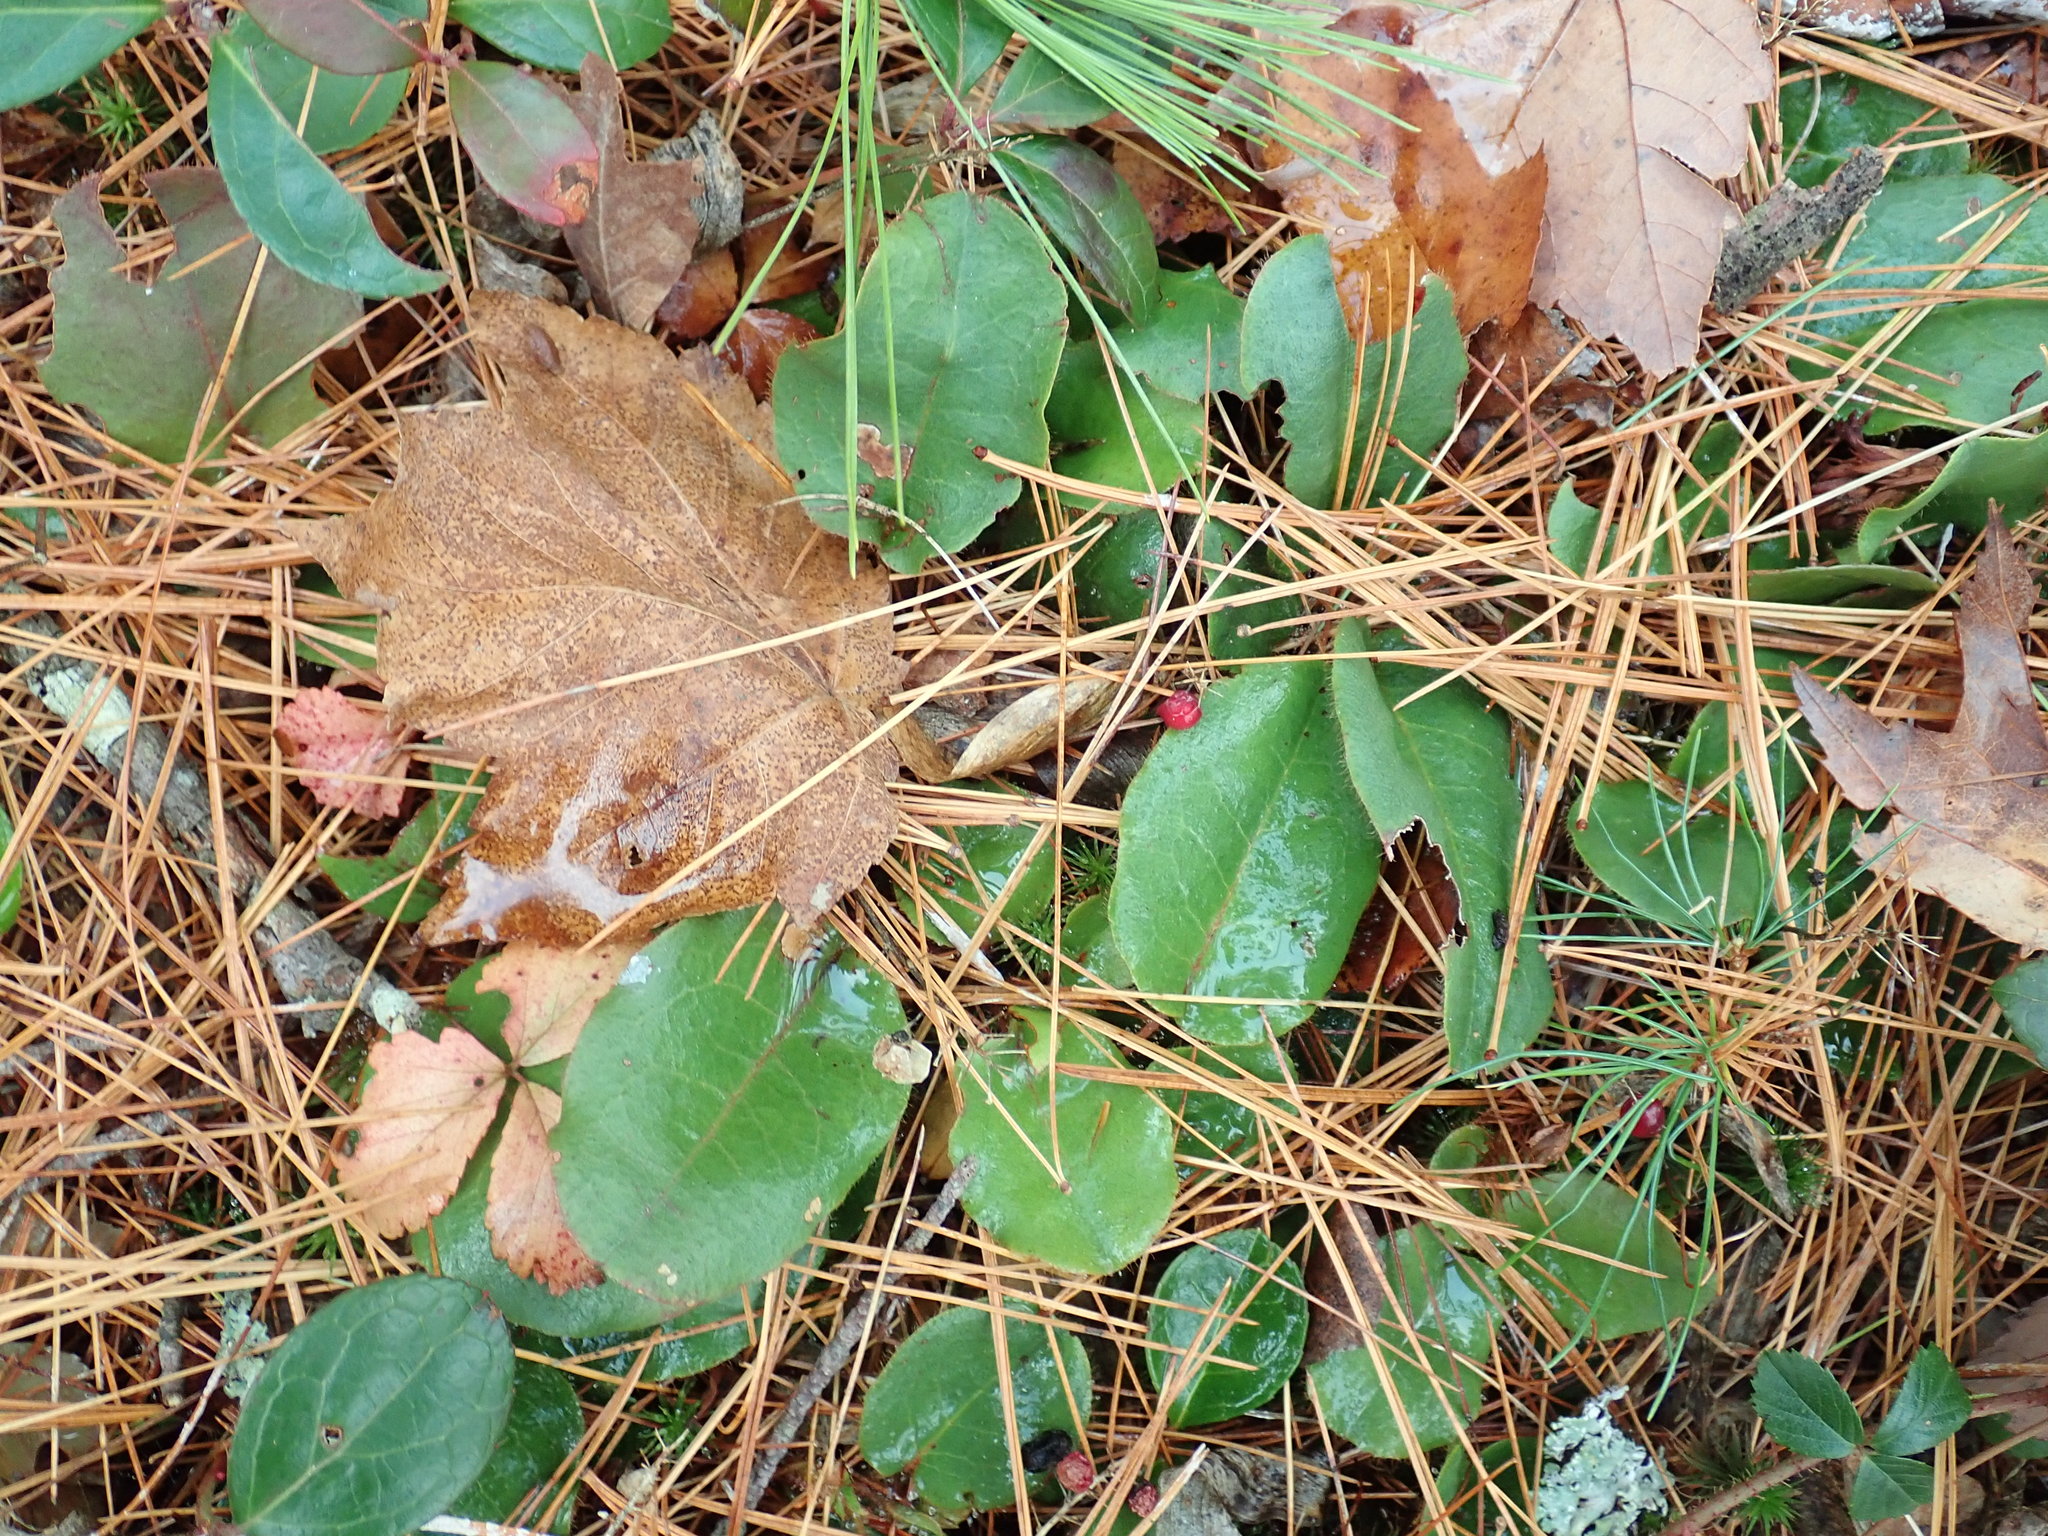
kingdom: Plantae
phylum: Tracheophyta
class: Magnoliopsida
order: Ericales
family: Ericaceae
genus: Epigaea
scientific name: Epigaea repens
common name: Gravelroot
